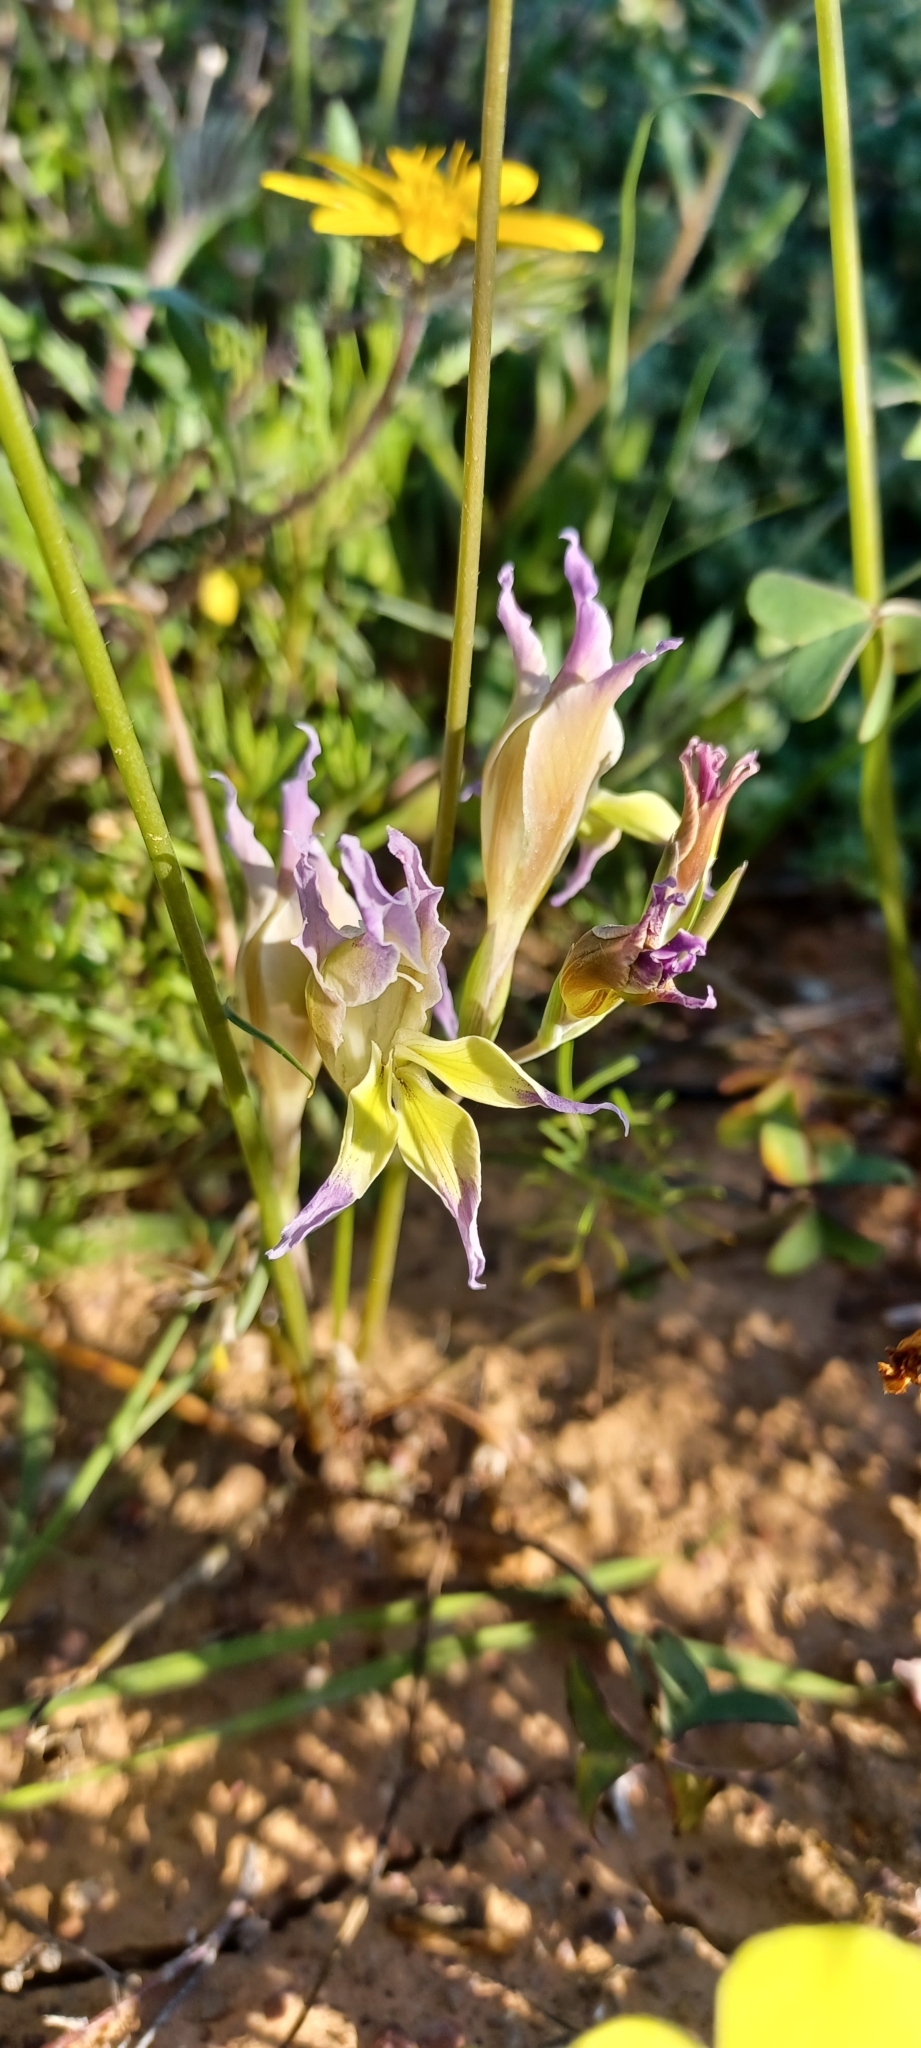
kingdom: Plantae
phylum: Tracheophyta
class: Liliopsida
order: Asparagales
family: Iridaceae
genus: Gladiolus
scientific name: Gladiolus venustus
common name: Purple kalkoentjie
